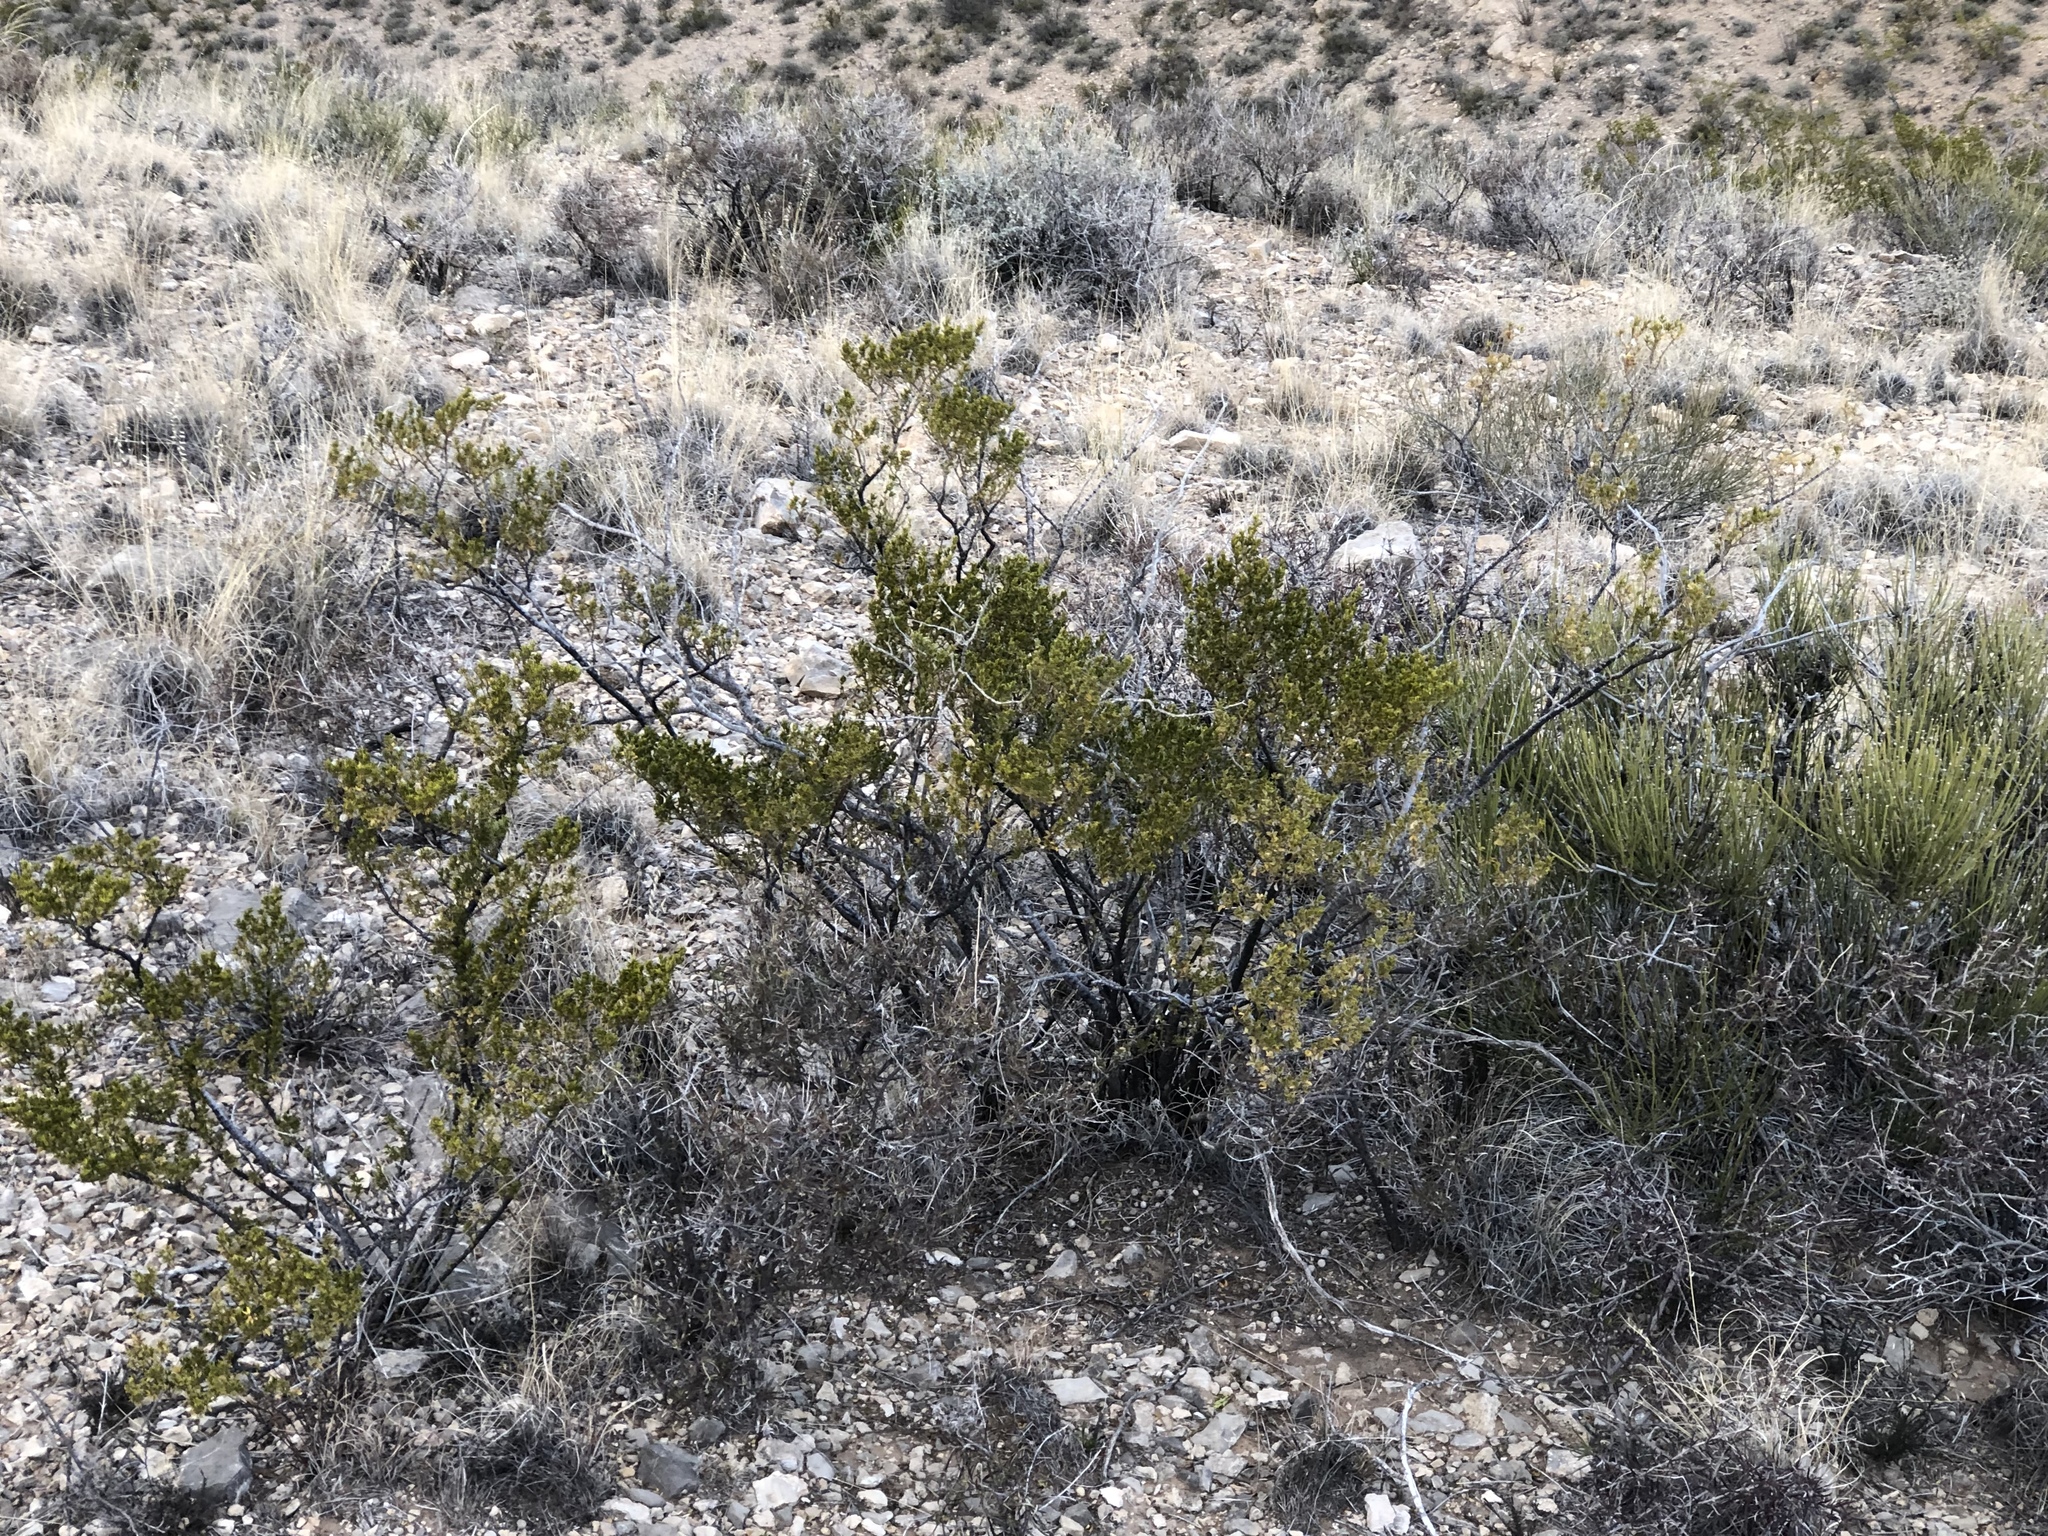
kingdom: Plantae
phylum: Tracheophyta
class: Magnoliopsida
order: Zygophyllales
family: Zygophyllaceae
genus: Larrea
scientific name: Larrea tridentata
